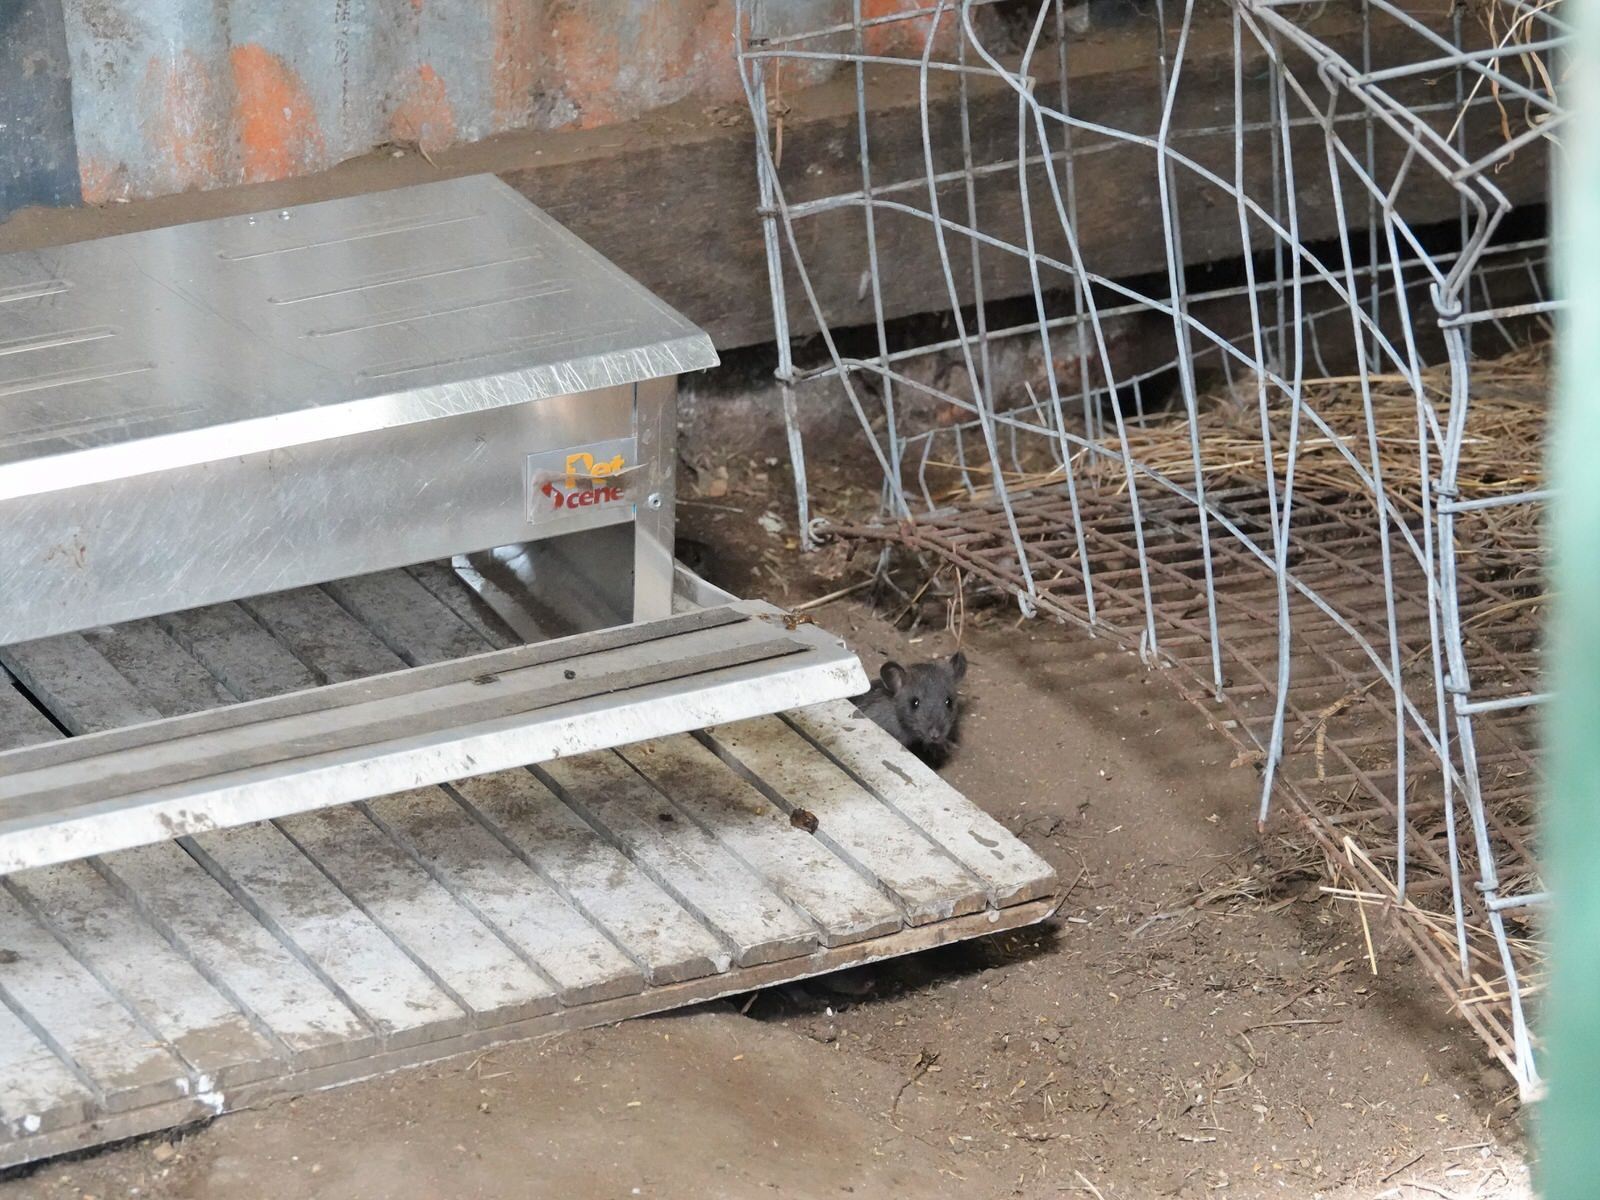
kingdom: Animalia
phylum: Chordata
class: Mammalia
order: Rodentia
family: Muridae
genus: Rattus
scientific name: Rattus rattus
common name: Black rat
